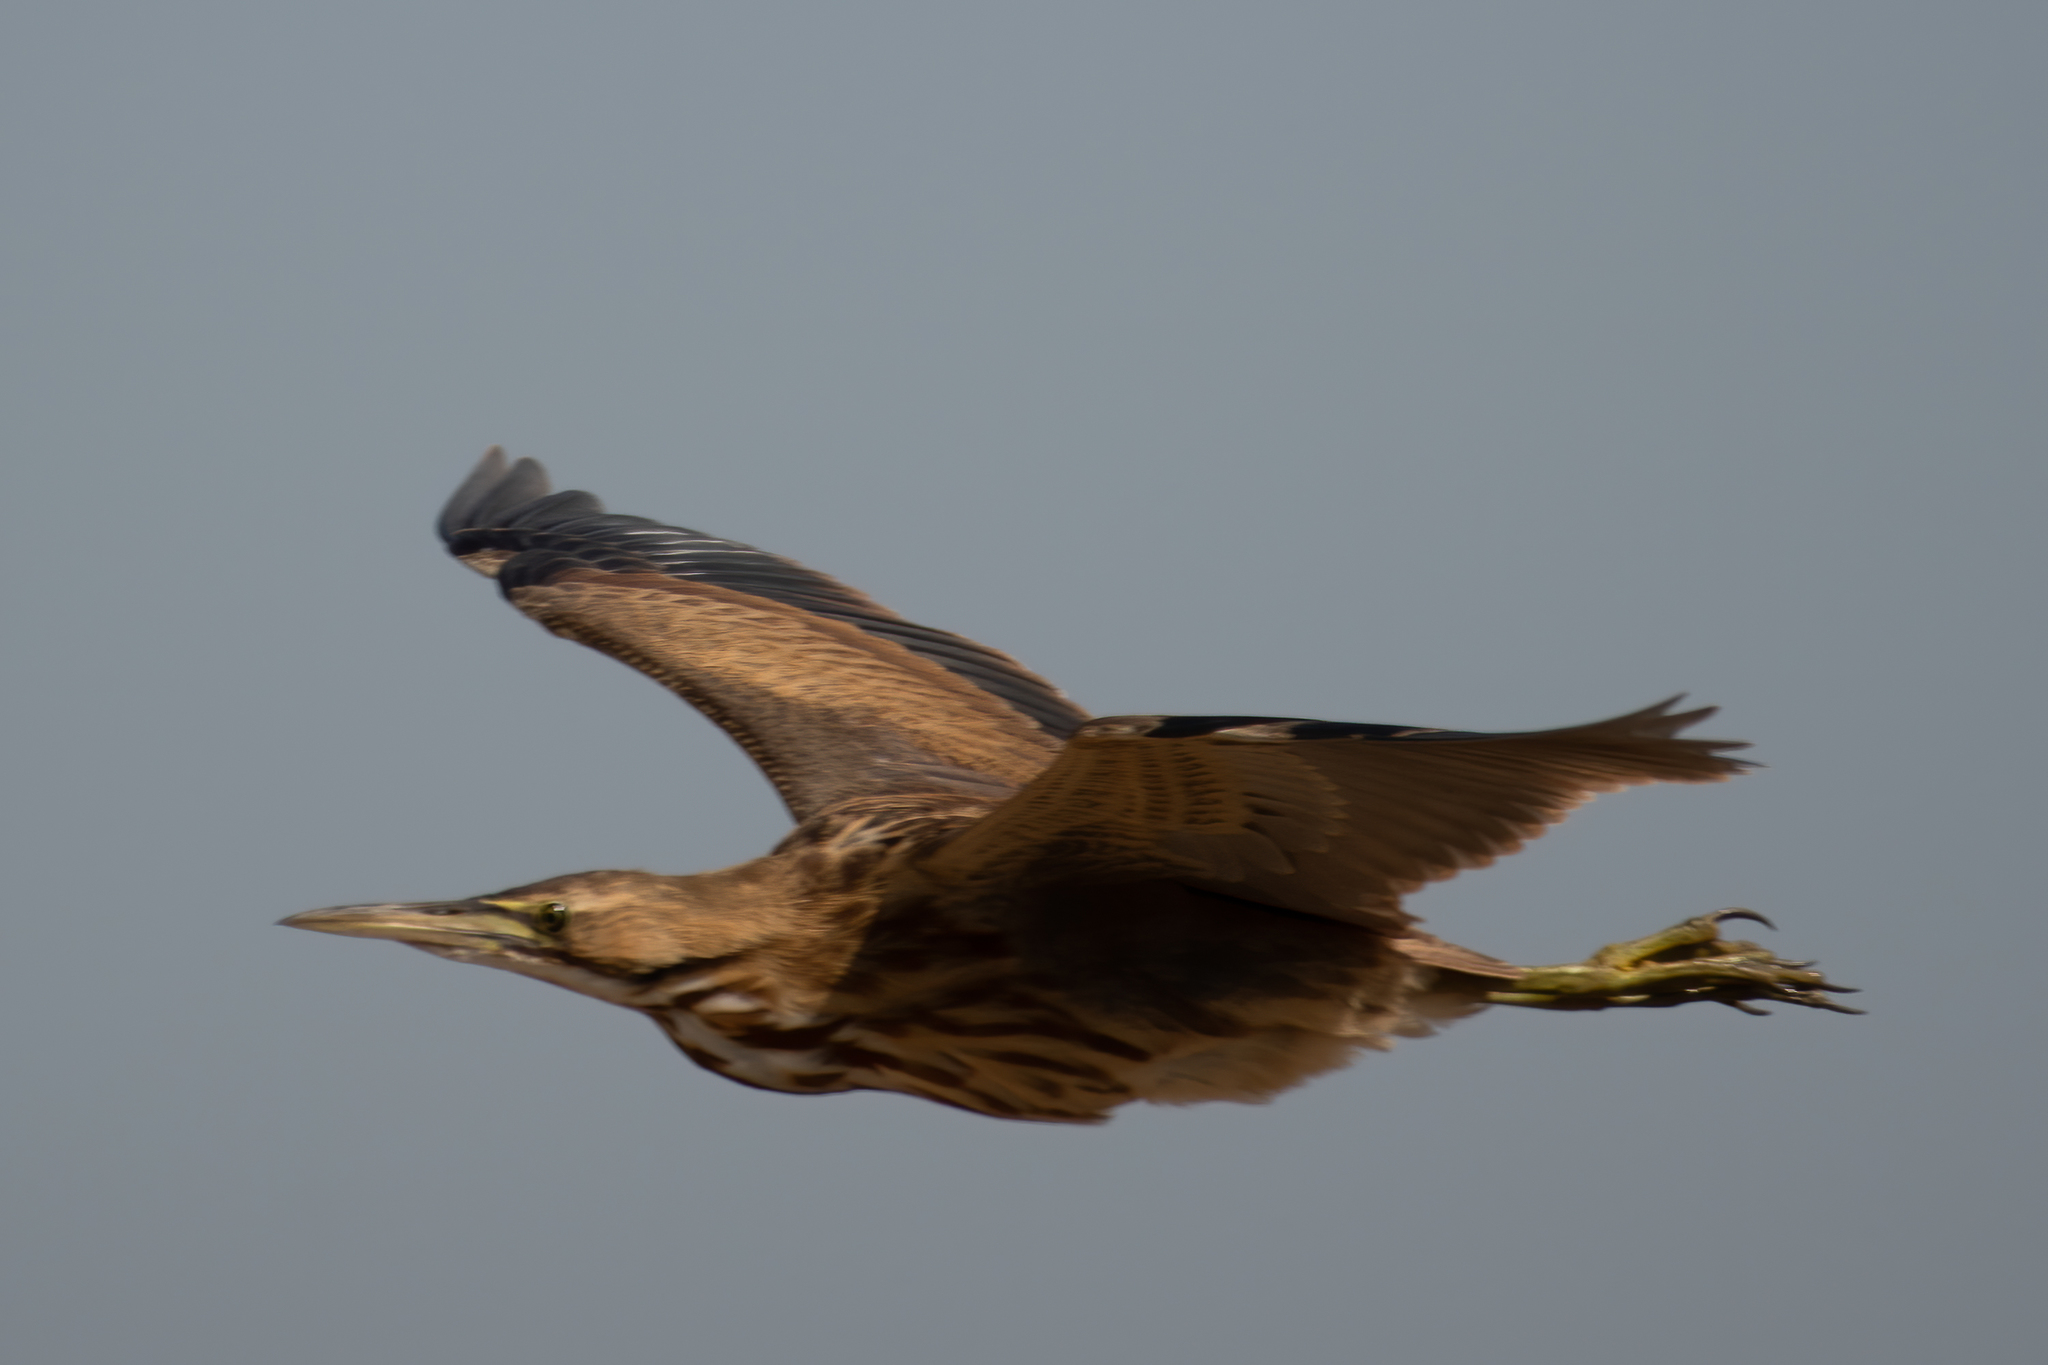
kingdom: Animalia
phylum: Chordata
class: Aves
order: Pelecaniformes
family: Ardeidae
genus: Botaurus
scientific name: Botaurus lentiginosus
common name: American bittern
